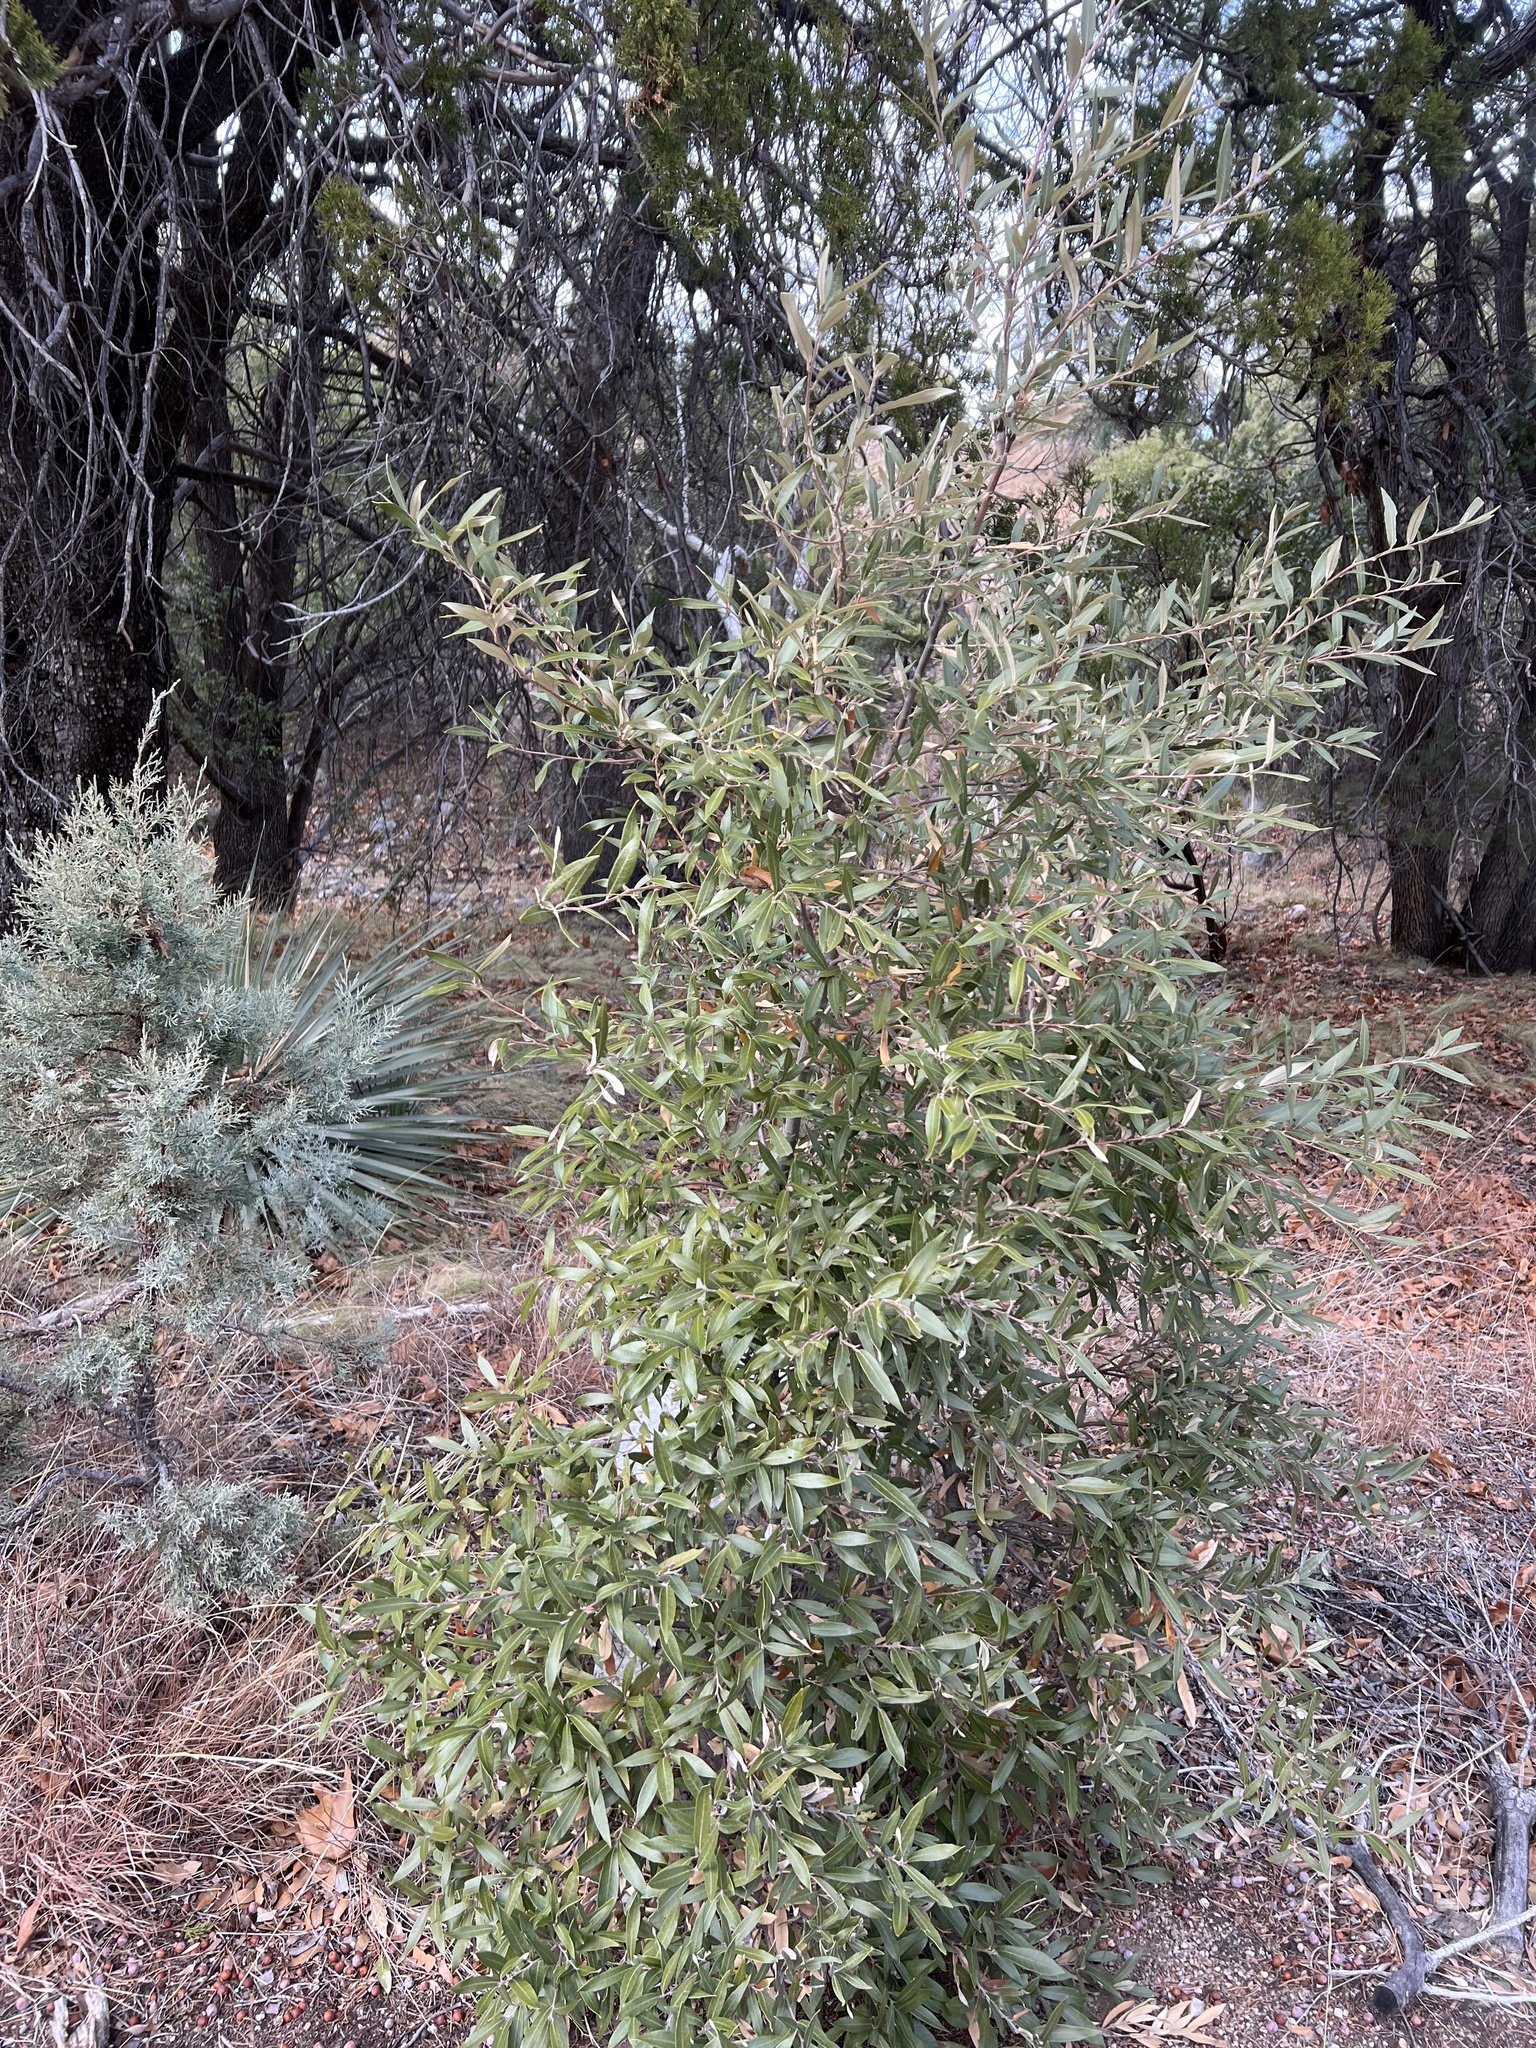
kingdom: Plantae
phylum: Tracheophyta
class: Magnoliopsida
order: Fagales
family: Fagaceae
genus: Quercus
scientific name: Quercus hypoleucoides
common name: Silverleaf oak
